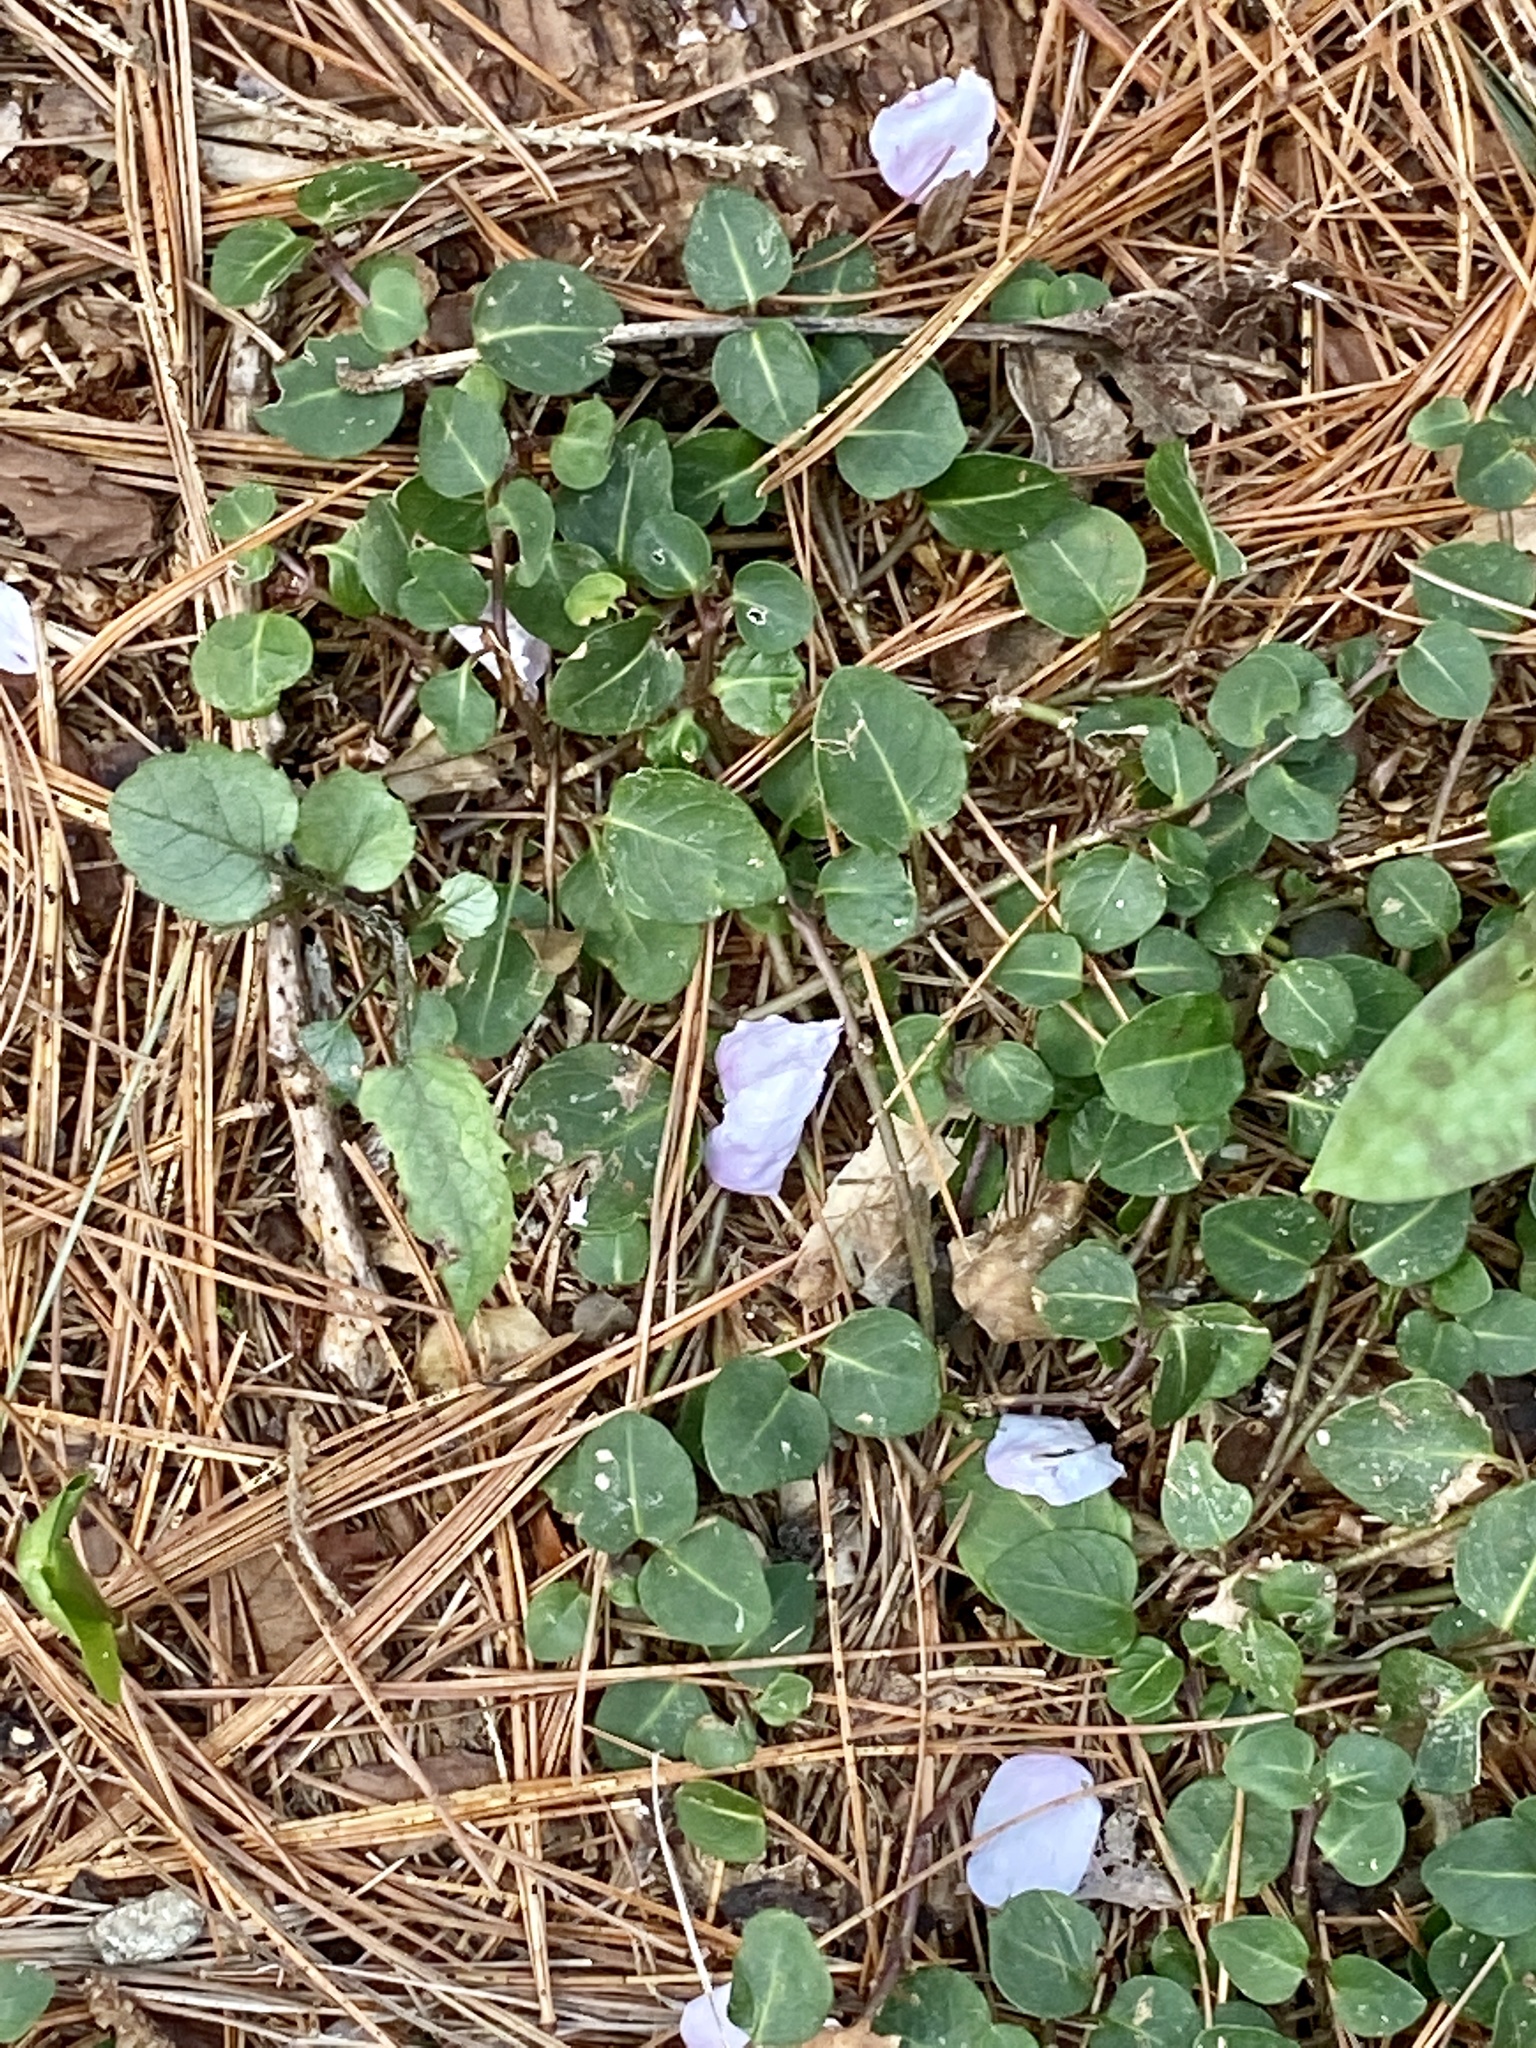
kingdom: Plantae
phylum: Tracheophyta
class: Magnoliopsida
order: Gentianales
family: Rubiaceae
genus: Mitchella
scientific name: Mitchella repens
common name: Partridge-berry
